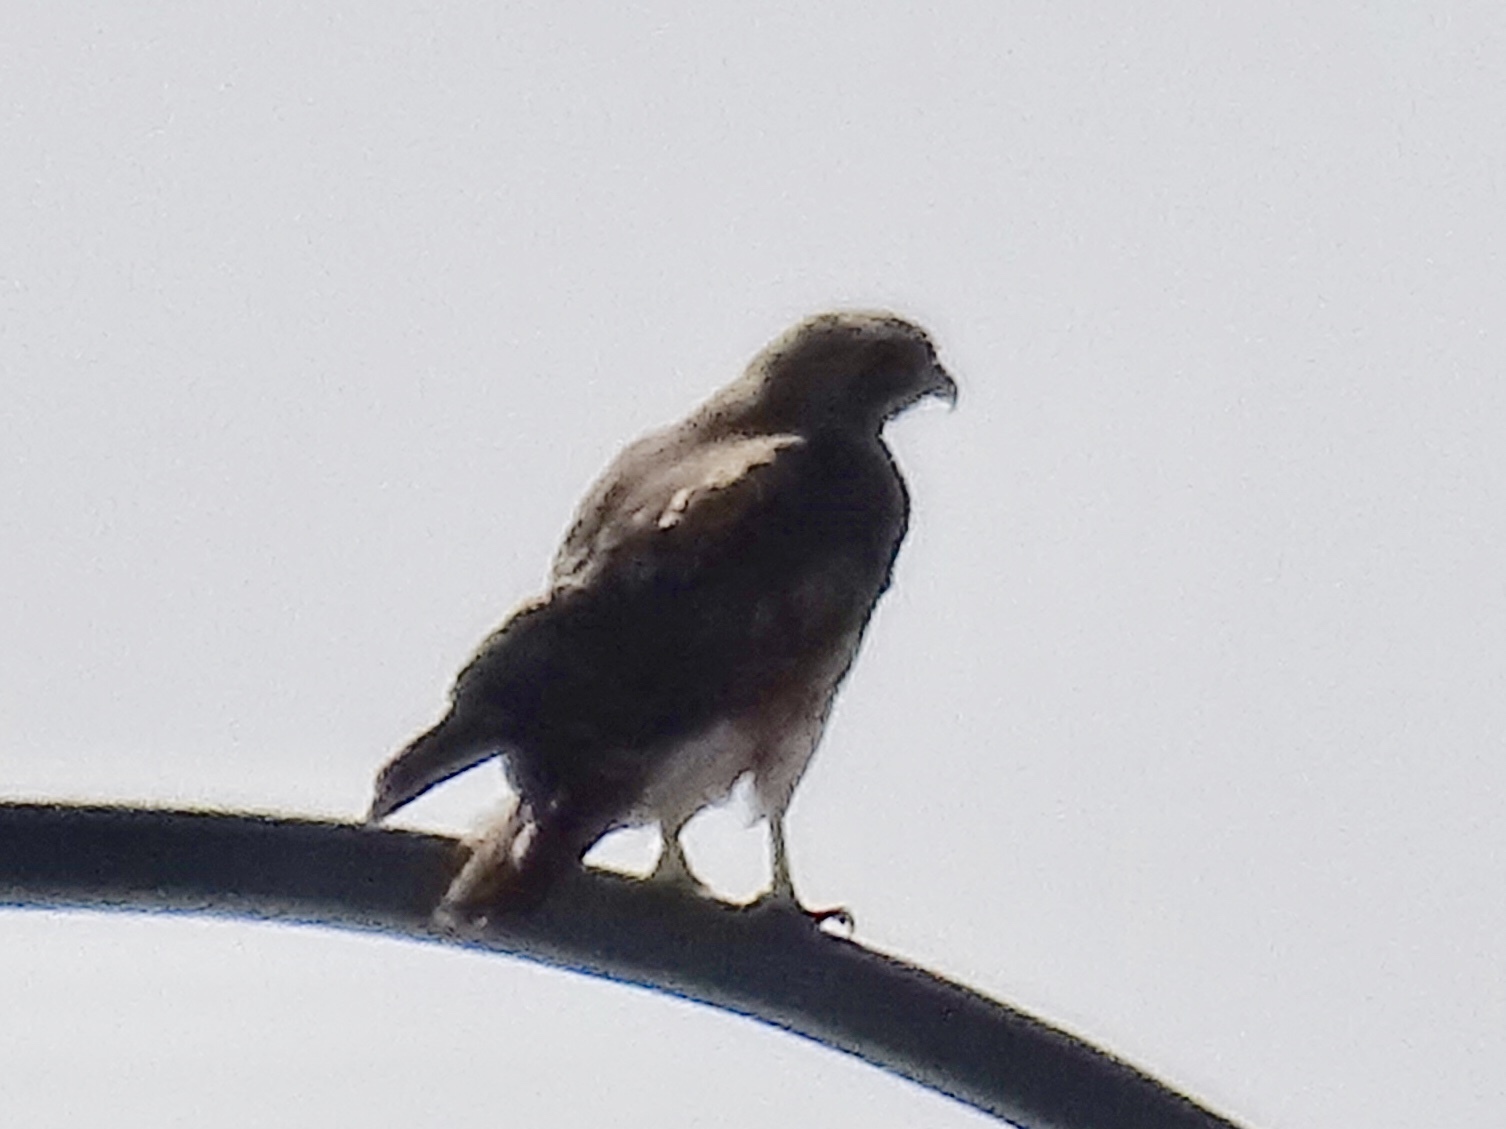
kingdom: Animalia
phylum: Chordata
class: Aves
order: Accipitriformes
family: Accipitridae
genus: Buteo
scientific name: Buteo jamaicensis
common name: Red-tailed hawk
